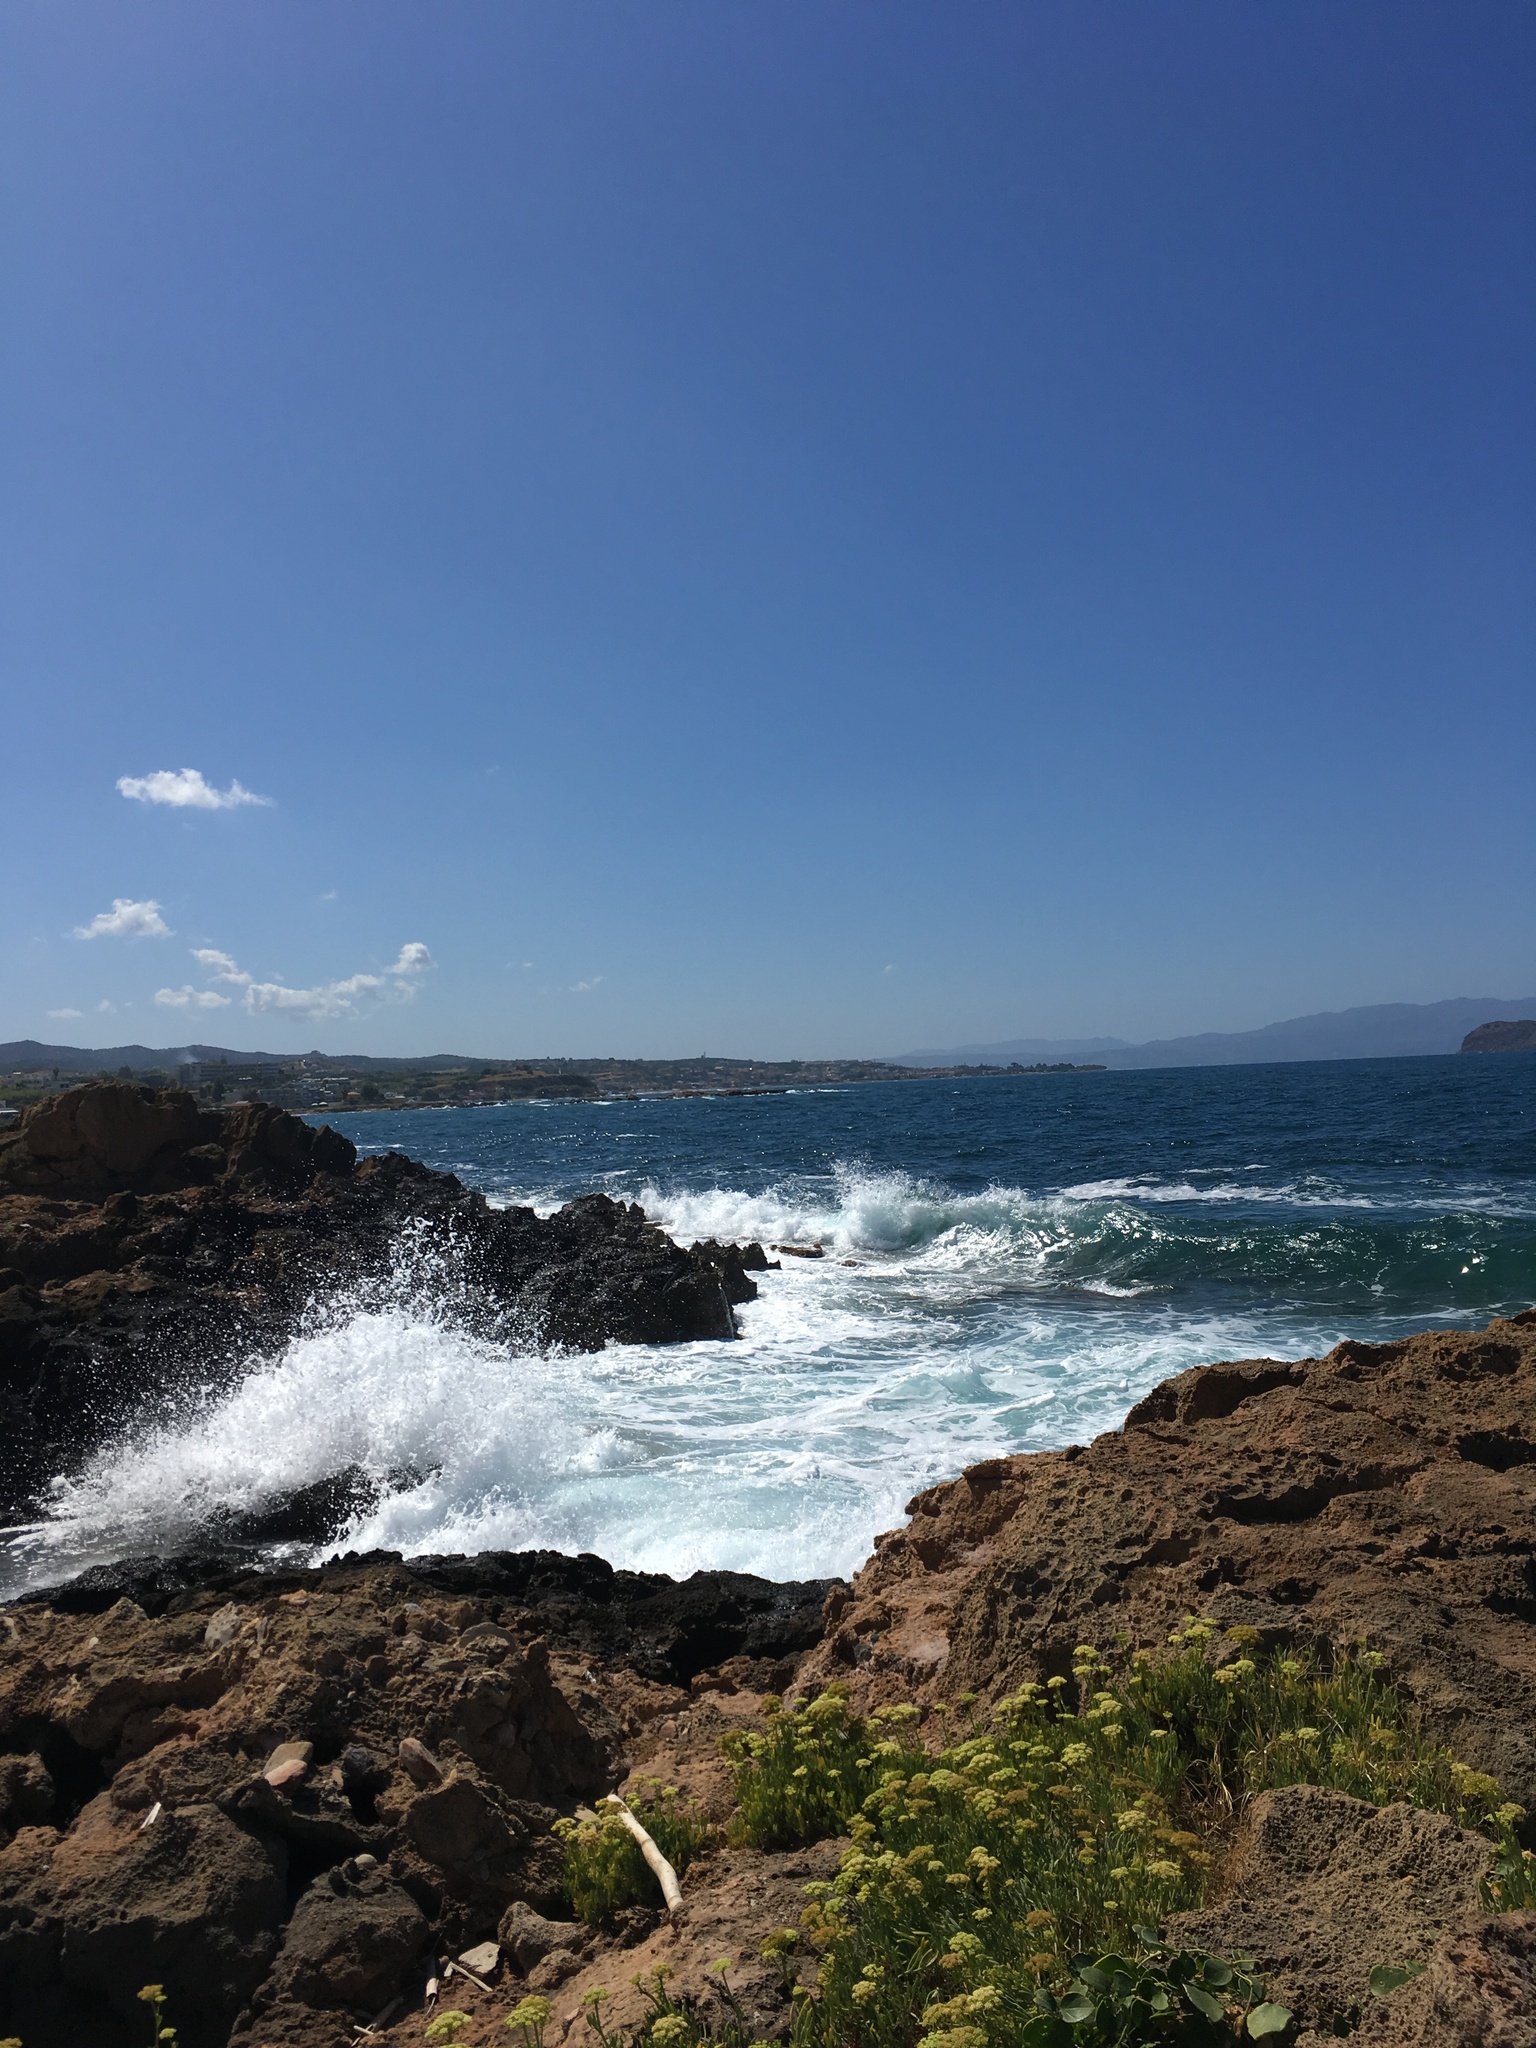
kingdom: Plantae
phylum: Tracheophyta
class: Magnoliopsida
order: Apiales
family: Apiaceae
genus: Crithmum
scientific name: Crithmum maritimum
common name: Rock samphire
